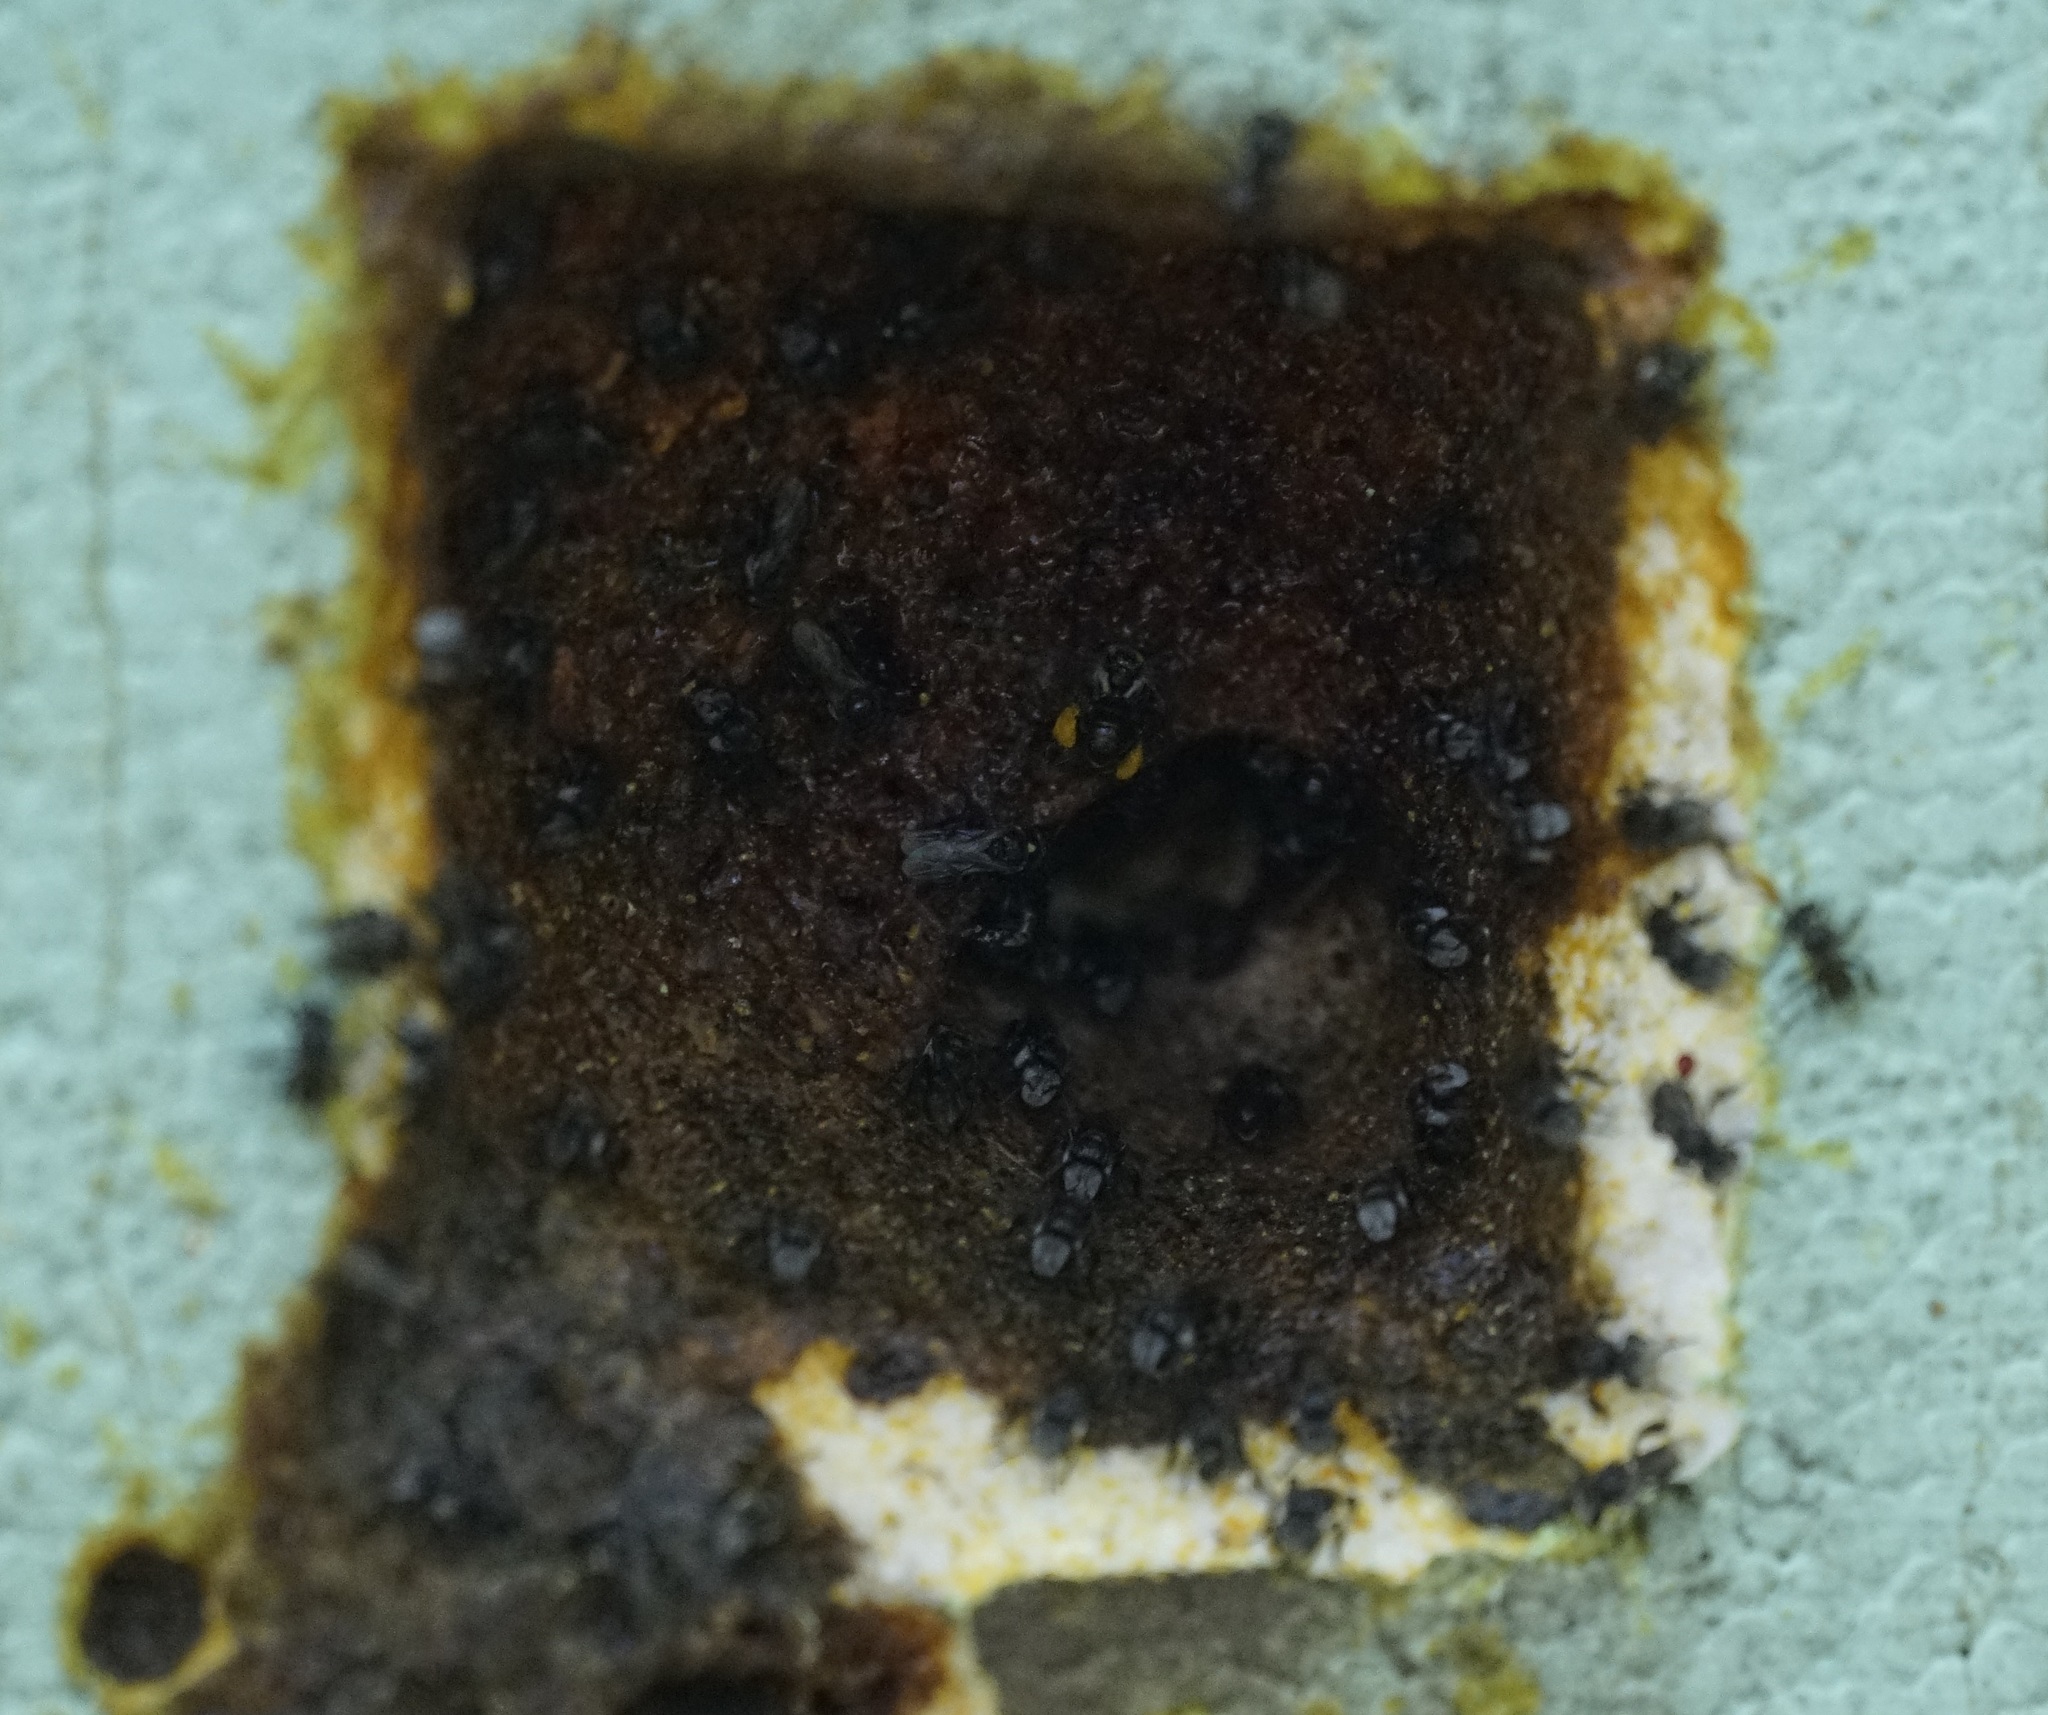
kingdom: Animalia
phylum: Arthropoda
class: Insecta
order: Hymenoptera
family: Apidae
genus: Tetragonula
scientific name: Tetragonula carbonaria
